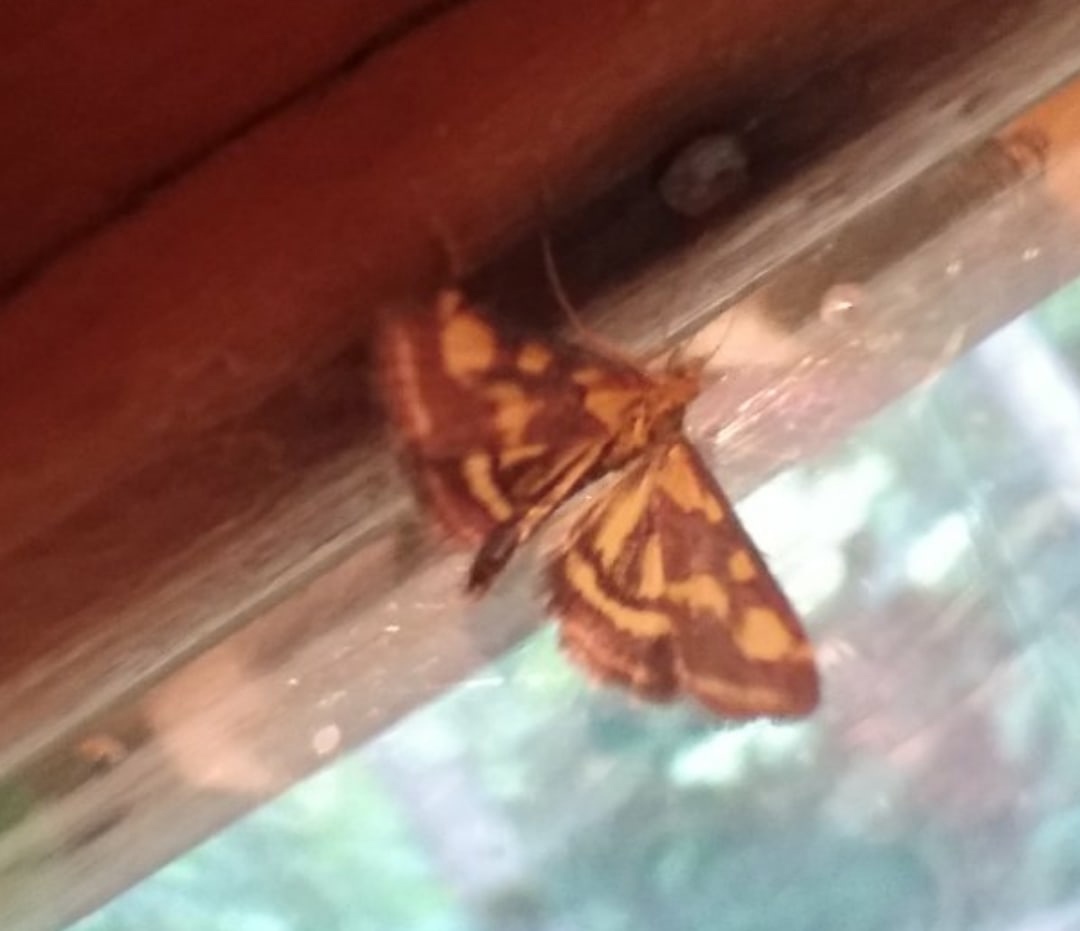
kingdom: Animalia
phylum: Arthropoda
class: Insecta
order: Lepidoptera
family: Crambidae
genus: Pyrausta
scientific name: Pyrausta purpuralis
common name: Common purple & gold
